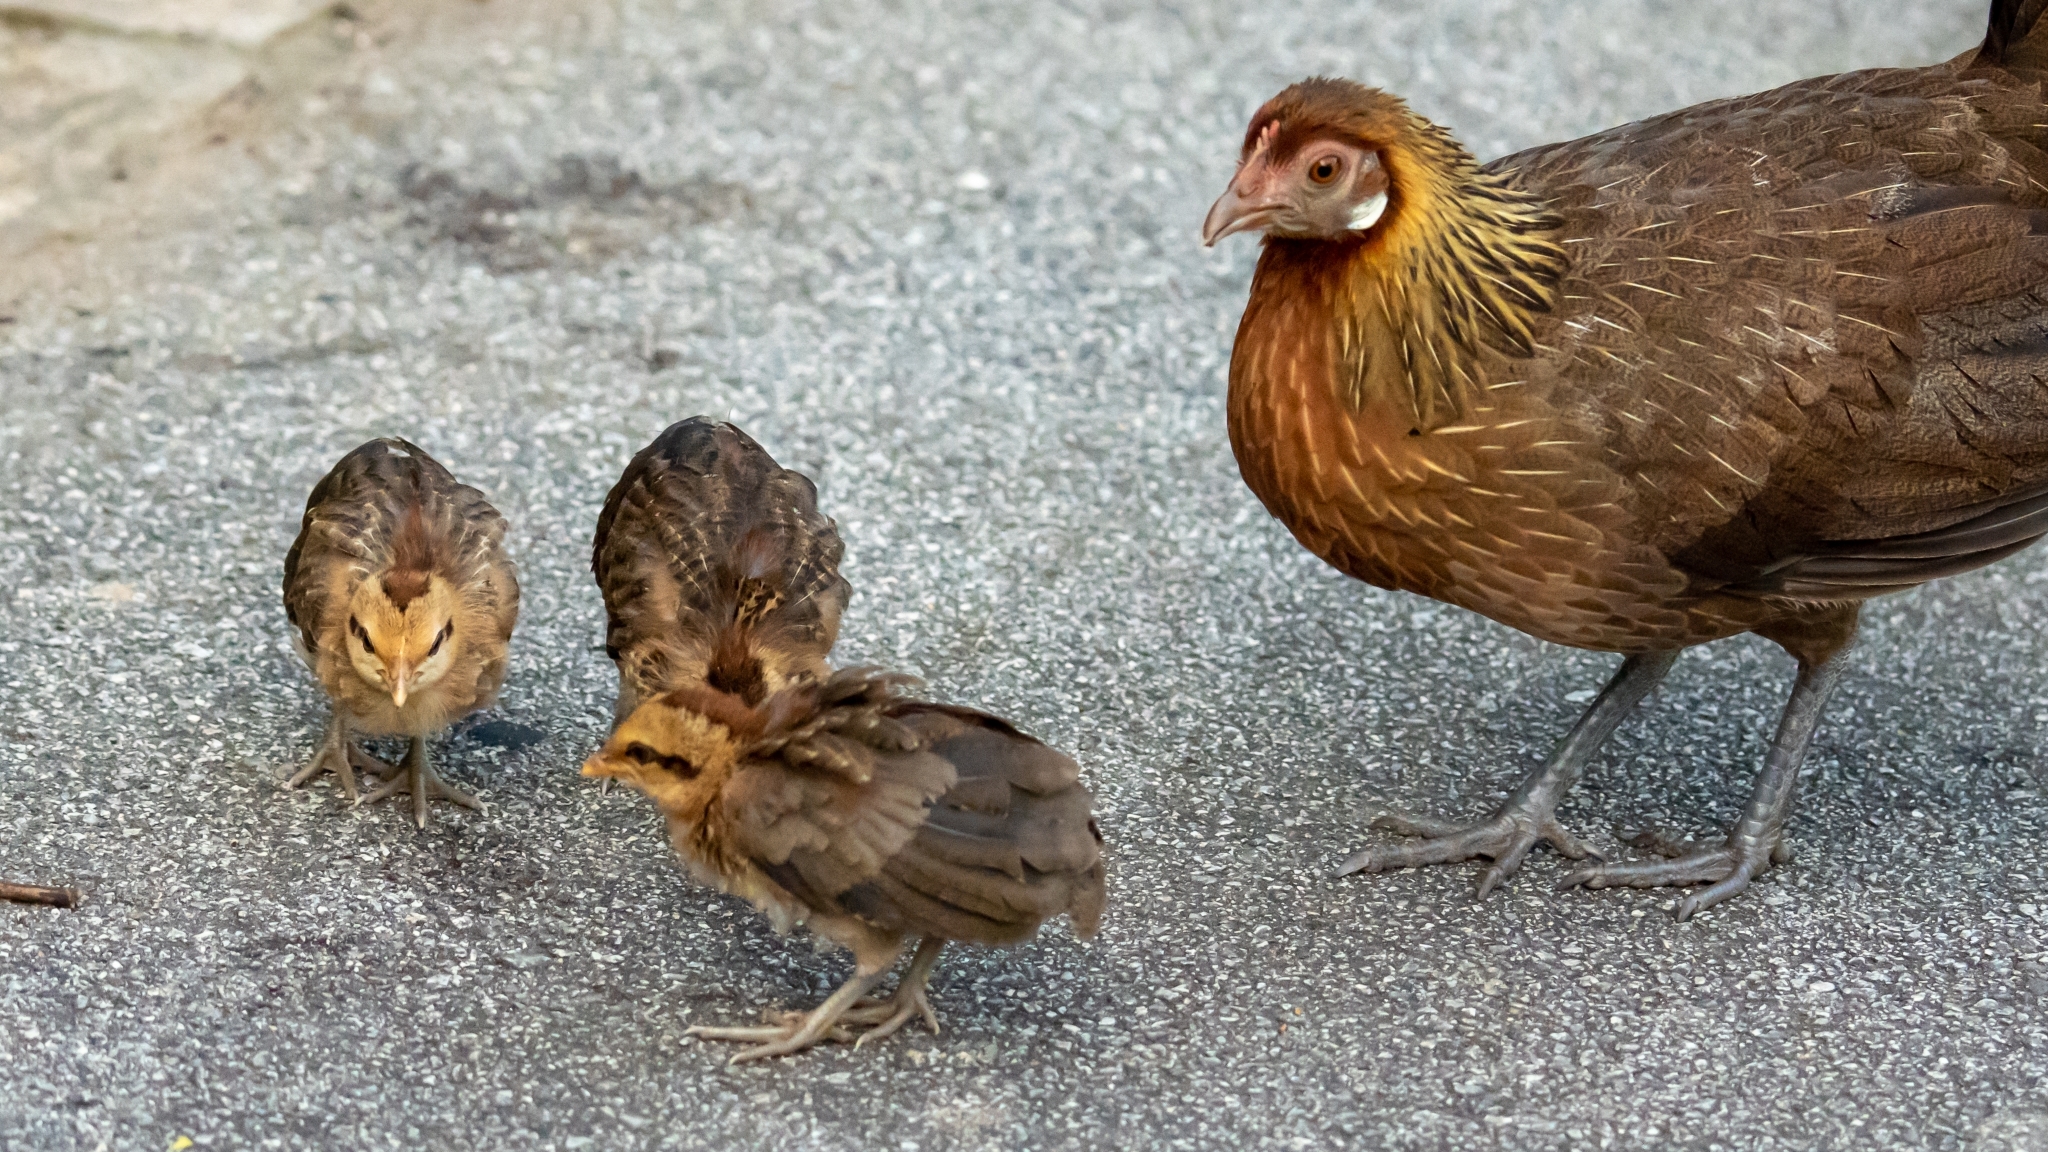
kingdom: Animalia
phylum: Chordata
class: Aves
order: Galliformes
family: Phasianidae
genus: Gallus
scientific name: Gallus gallus
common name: Red junglefowl
